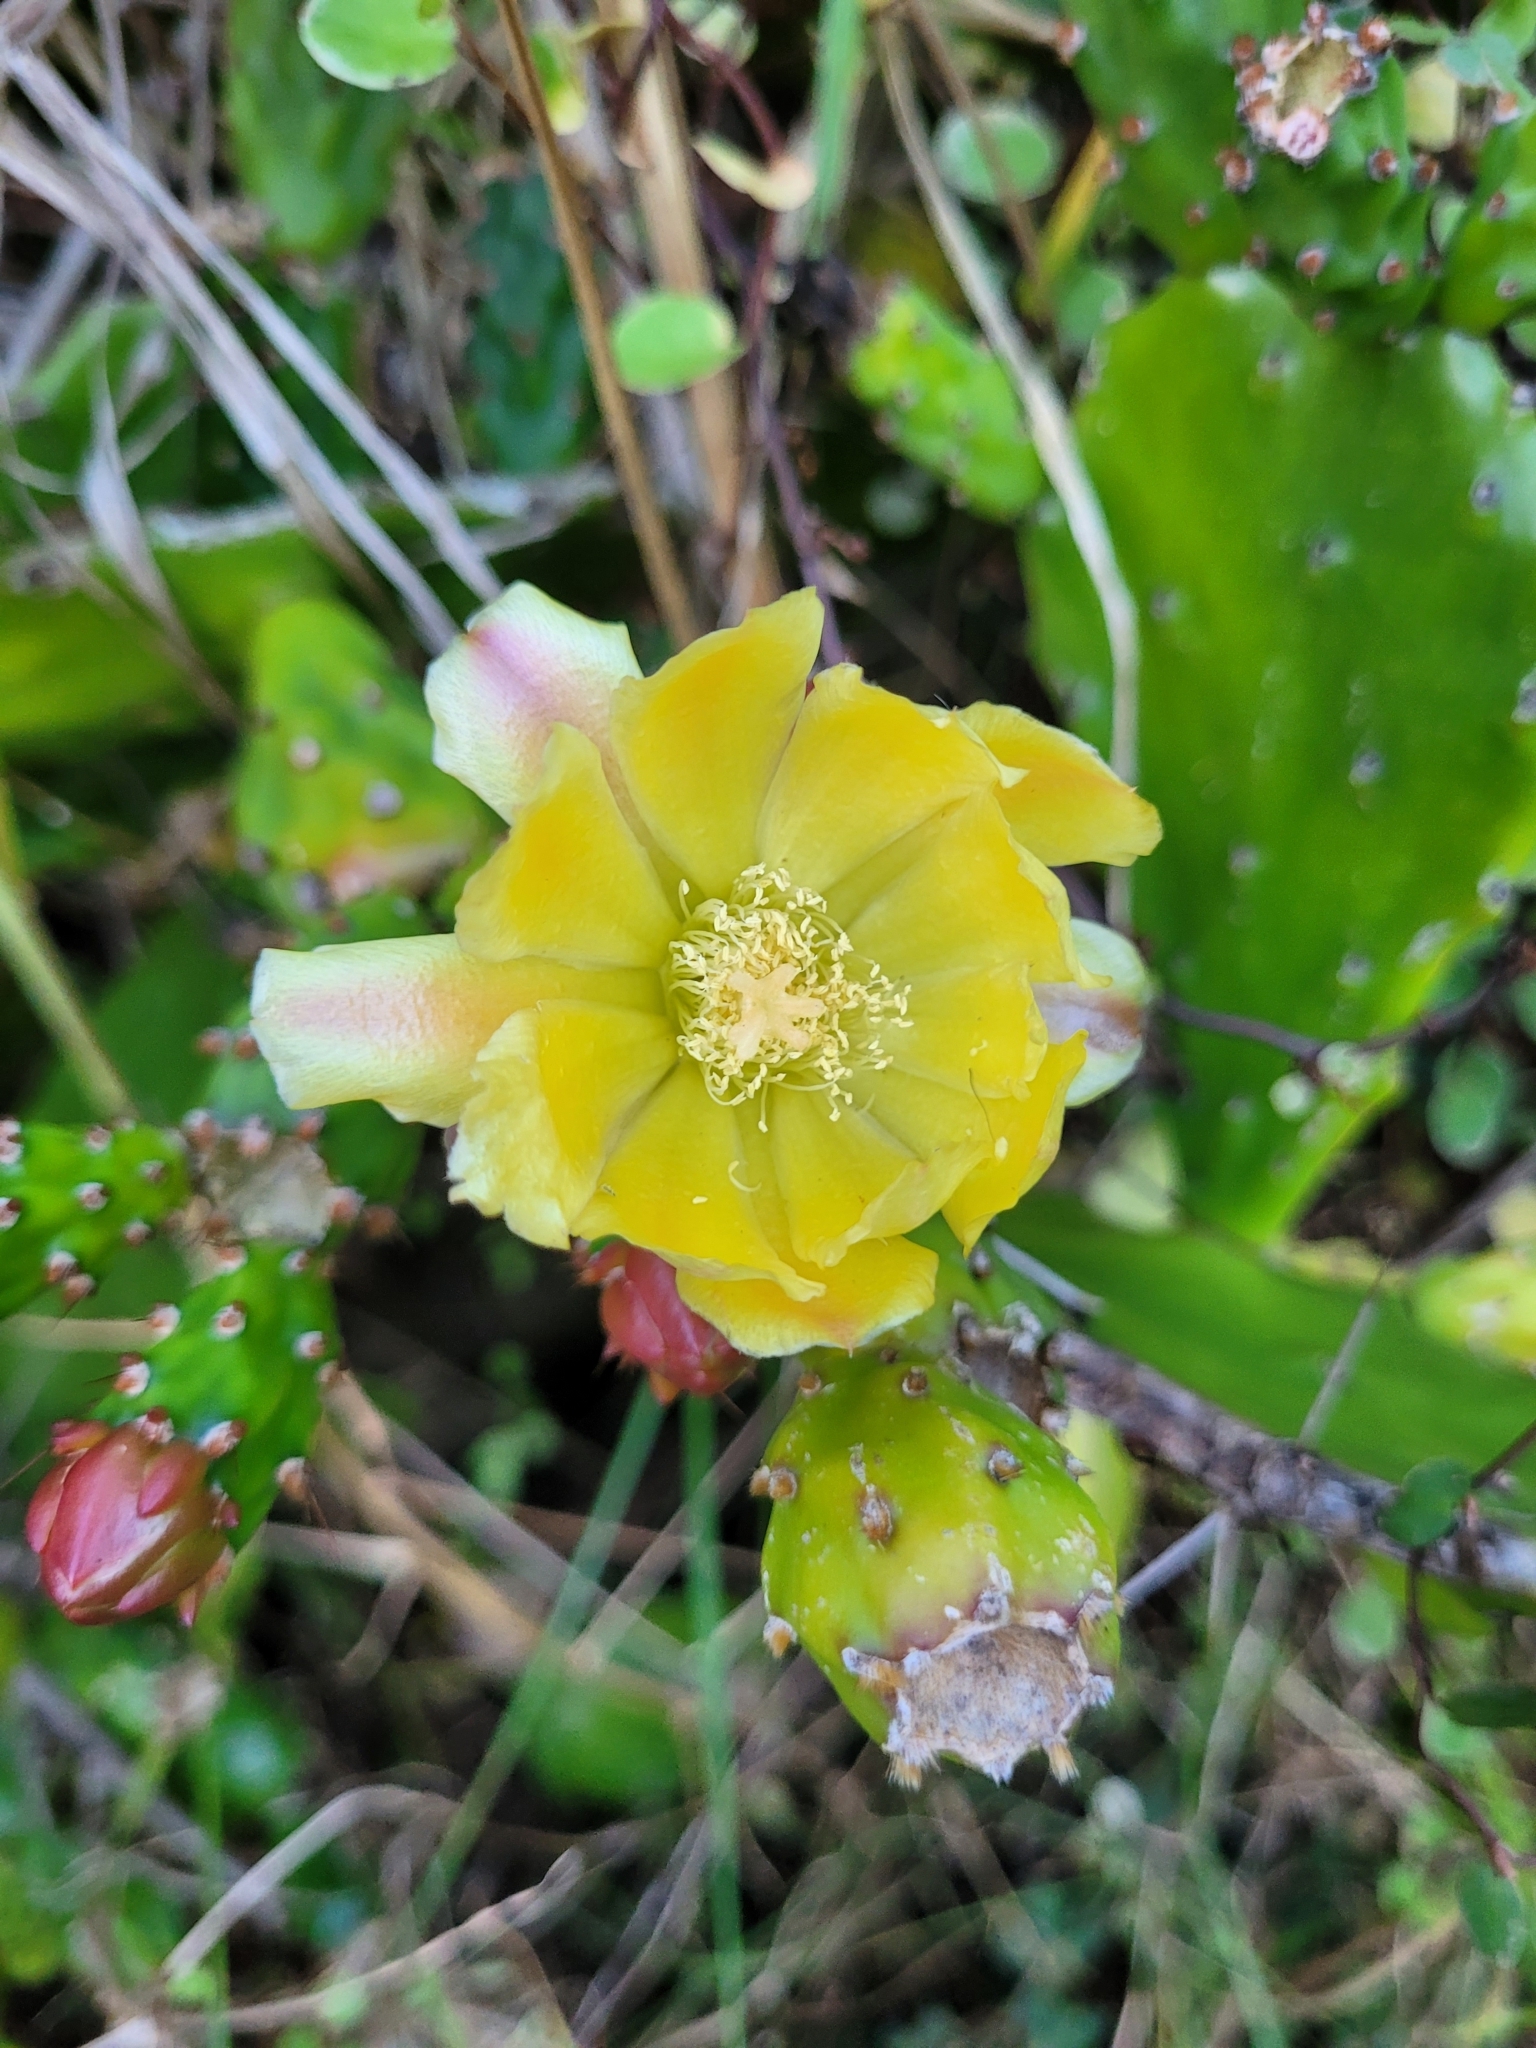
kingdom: Plantae
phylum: Tracheophyta
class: Magnoliopsida
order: Caryophyllales
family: Cactaceae
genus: Opuntia
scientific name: Opuntia monacantha
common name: Common pricklypear
